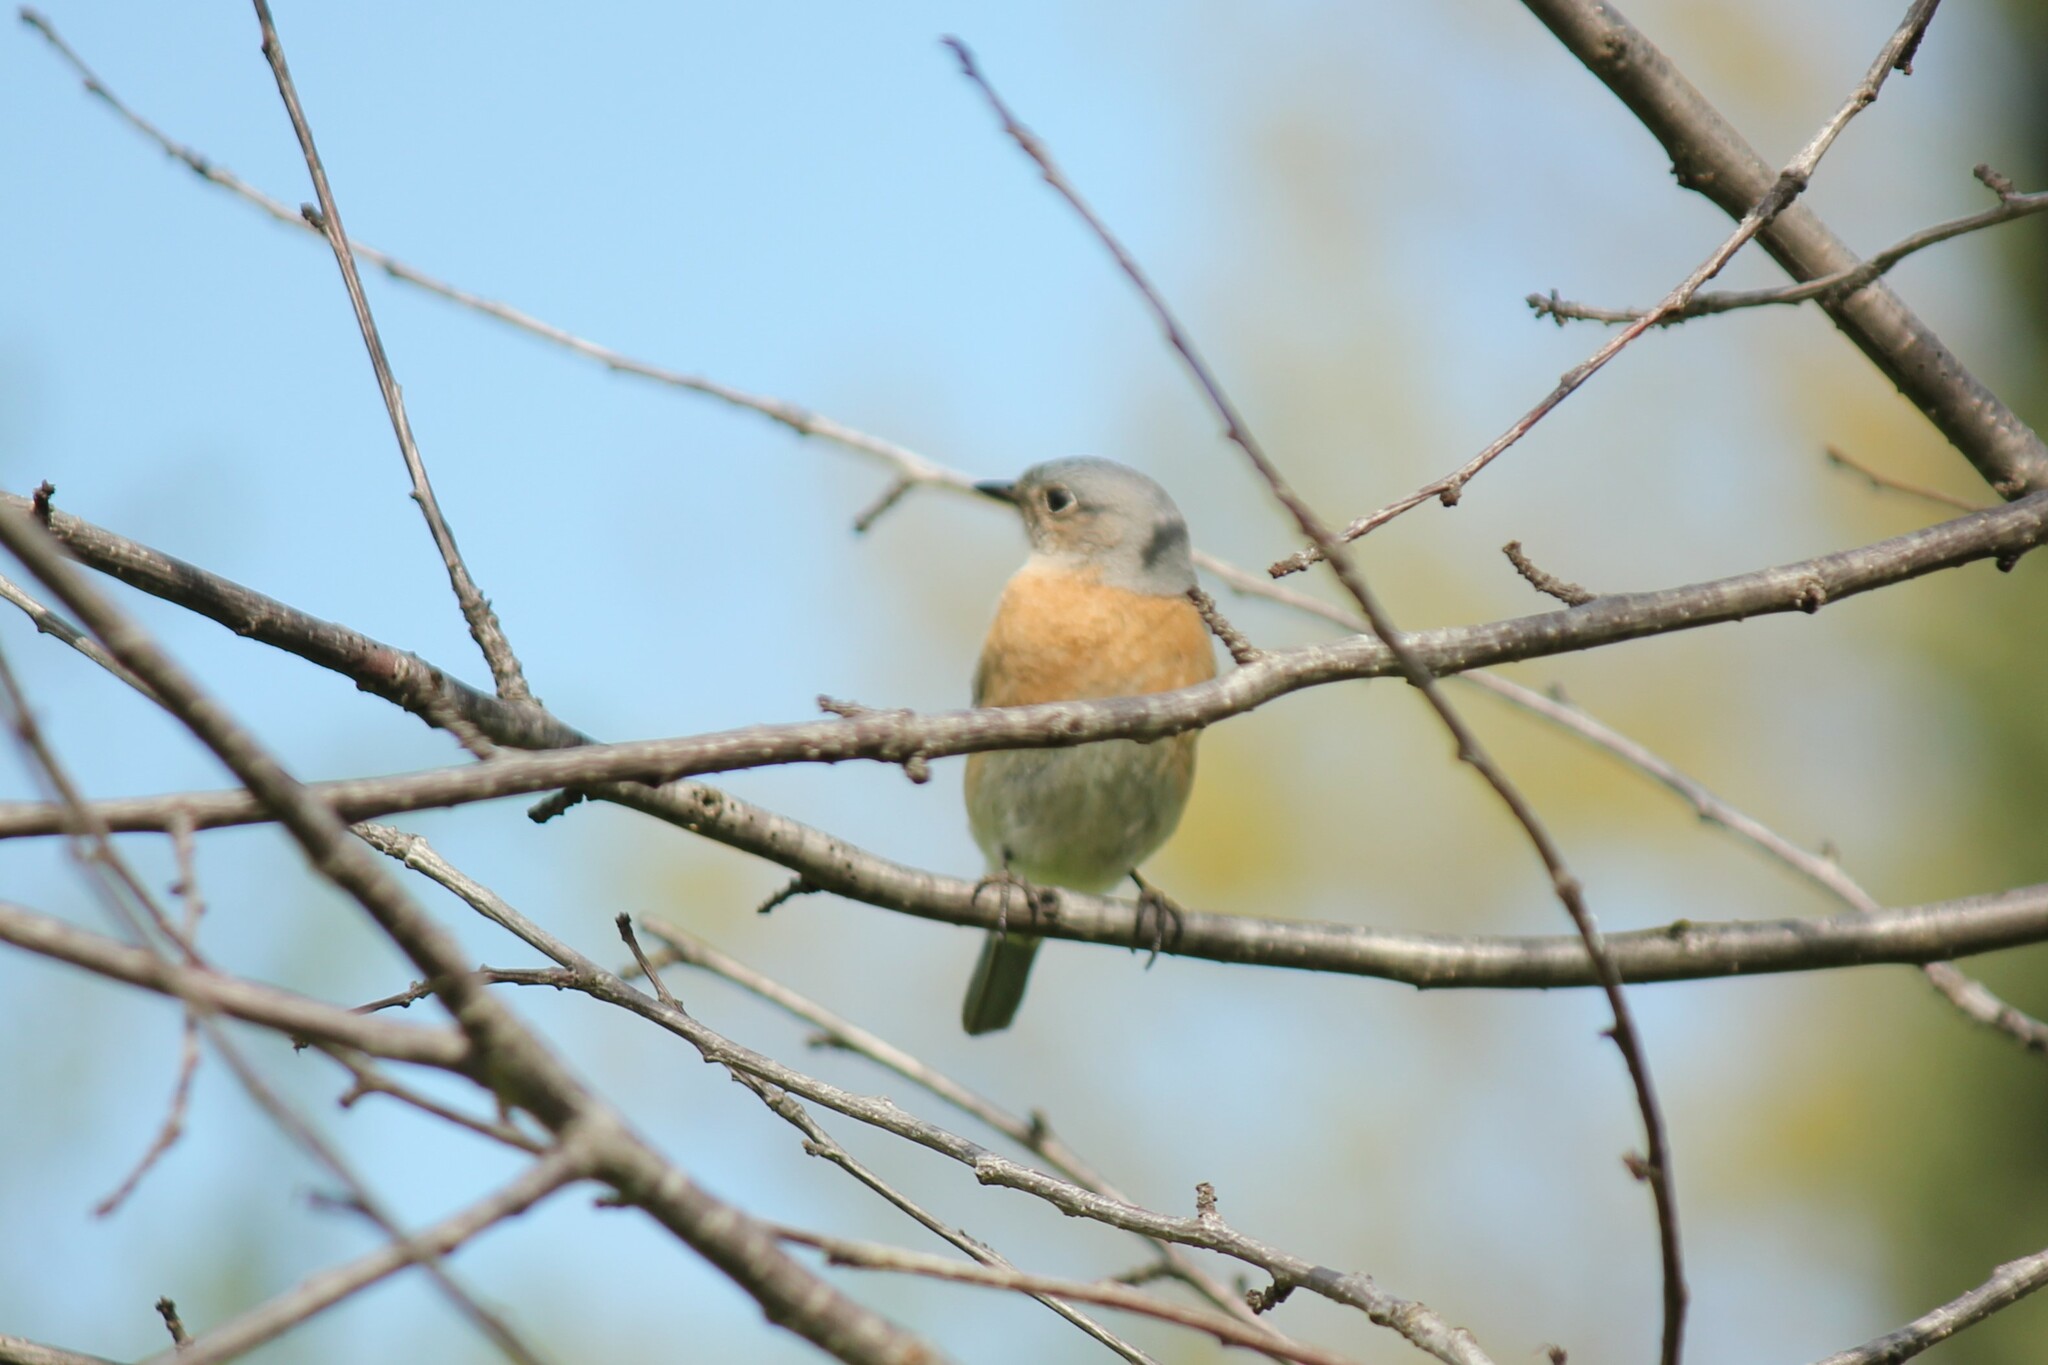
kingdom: Animalia
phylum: Chordata
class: Aves
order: Passeriformes
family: Turdidae
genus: Sialia
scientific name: Sialia mexicana
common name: Western bluebird
